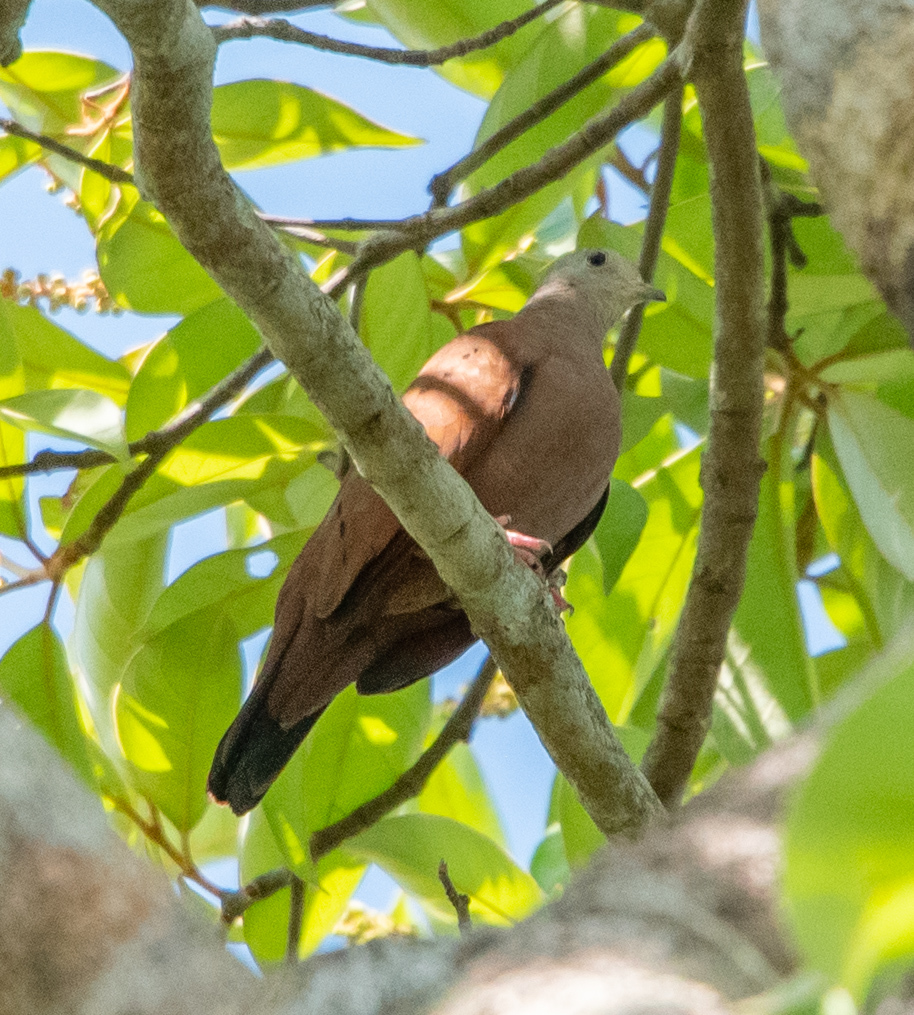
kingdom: Animalia
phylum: Chordata
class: Aves
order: Columbiformes
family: Columbidae
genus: Columbina
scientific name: Columbina talpacoti
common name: Ruddy ground dove
